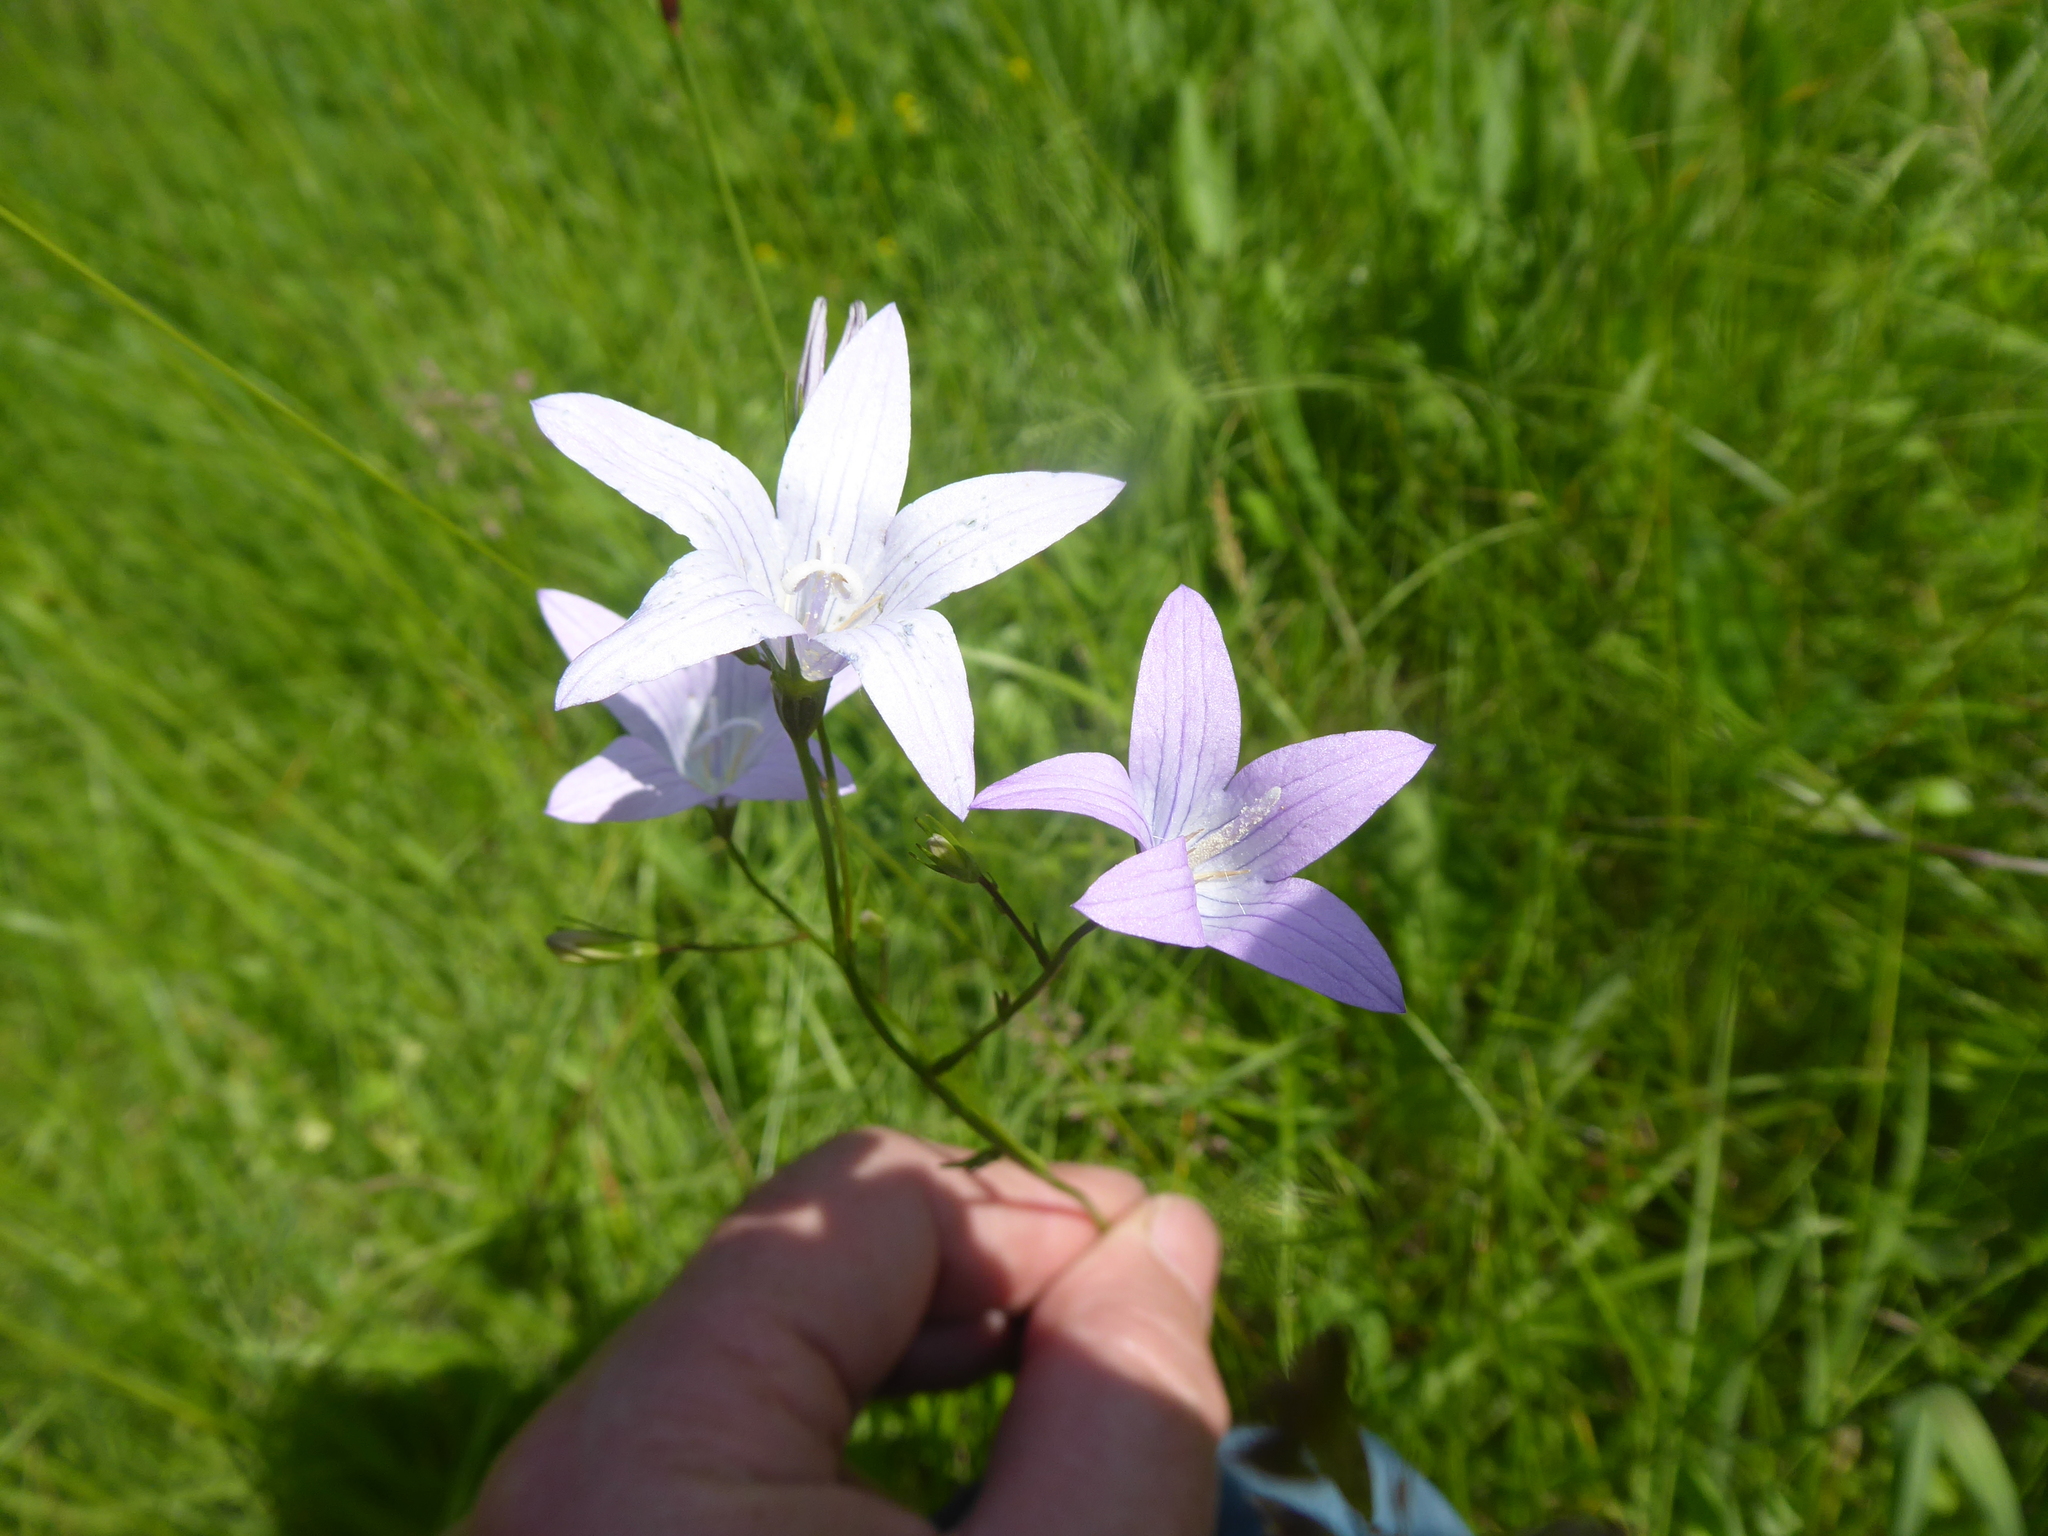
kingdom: Plantae
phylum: Tracheophyta
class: Magnoliopsida
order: Asterales
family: Campanulaceae
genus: Campanula
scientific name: Campanula patula
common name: Spreading bellflower
